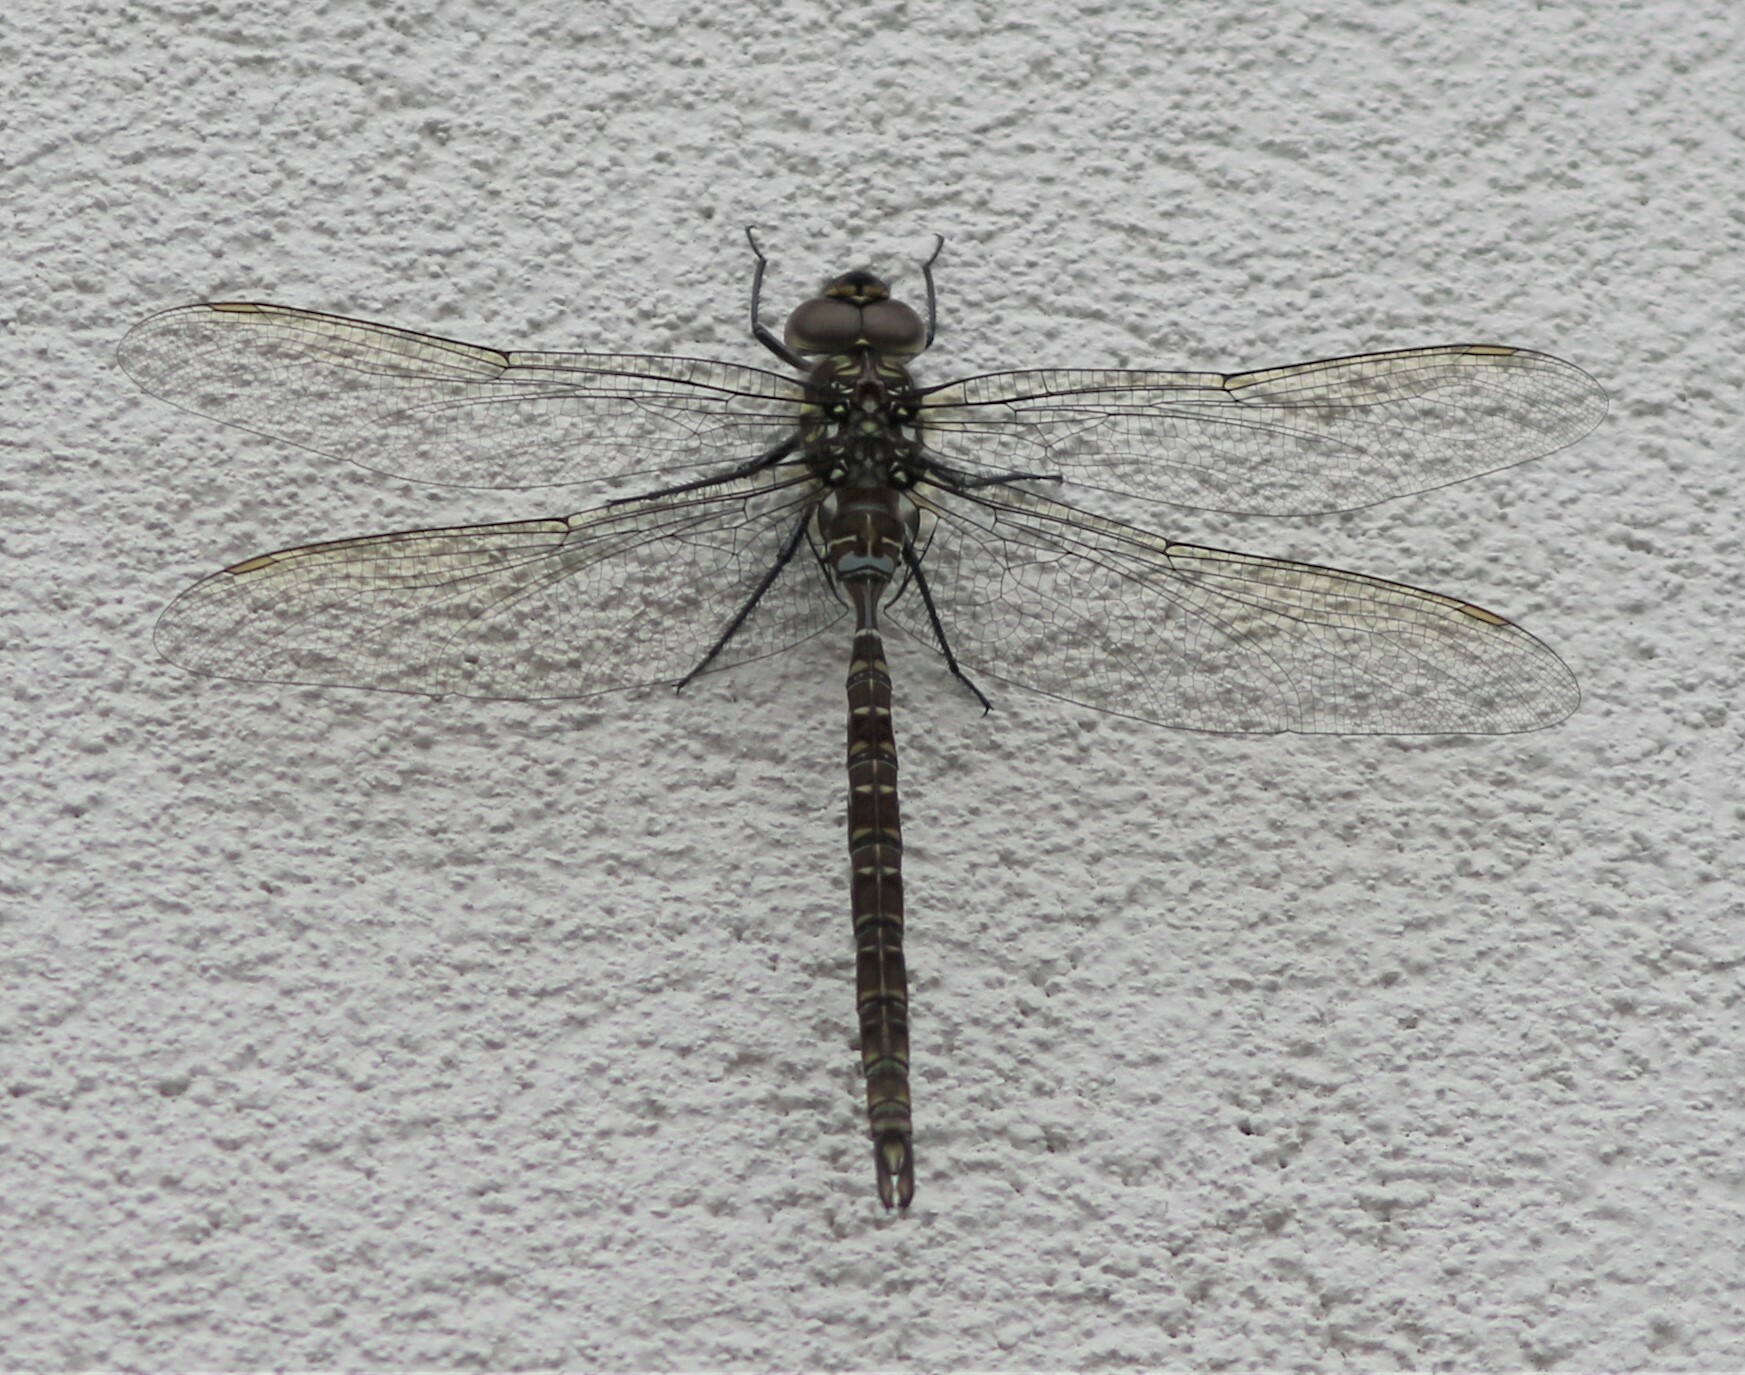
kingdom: Animalia
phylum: Arthropoda
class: Insecta
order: Odonata
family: Aeshnidae
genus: Aeshna
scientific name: Aeshna umbrosa
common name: Shadow darner
